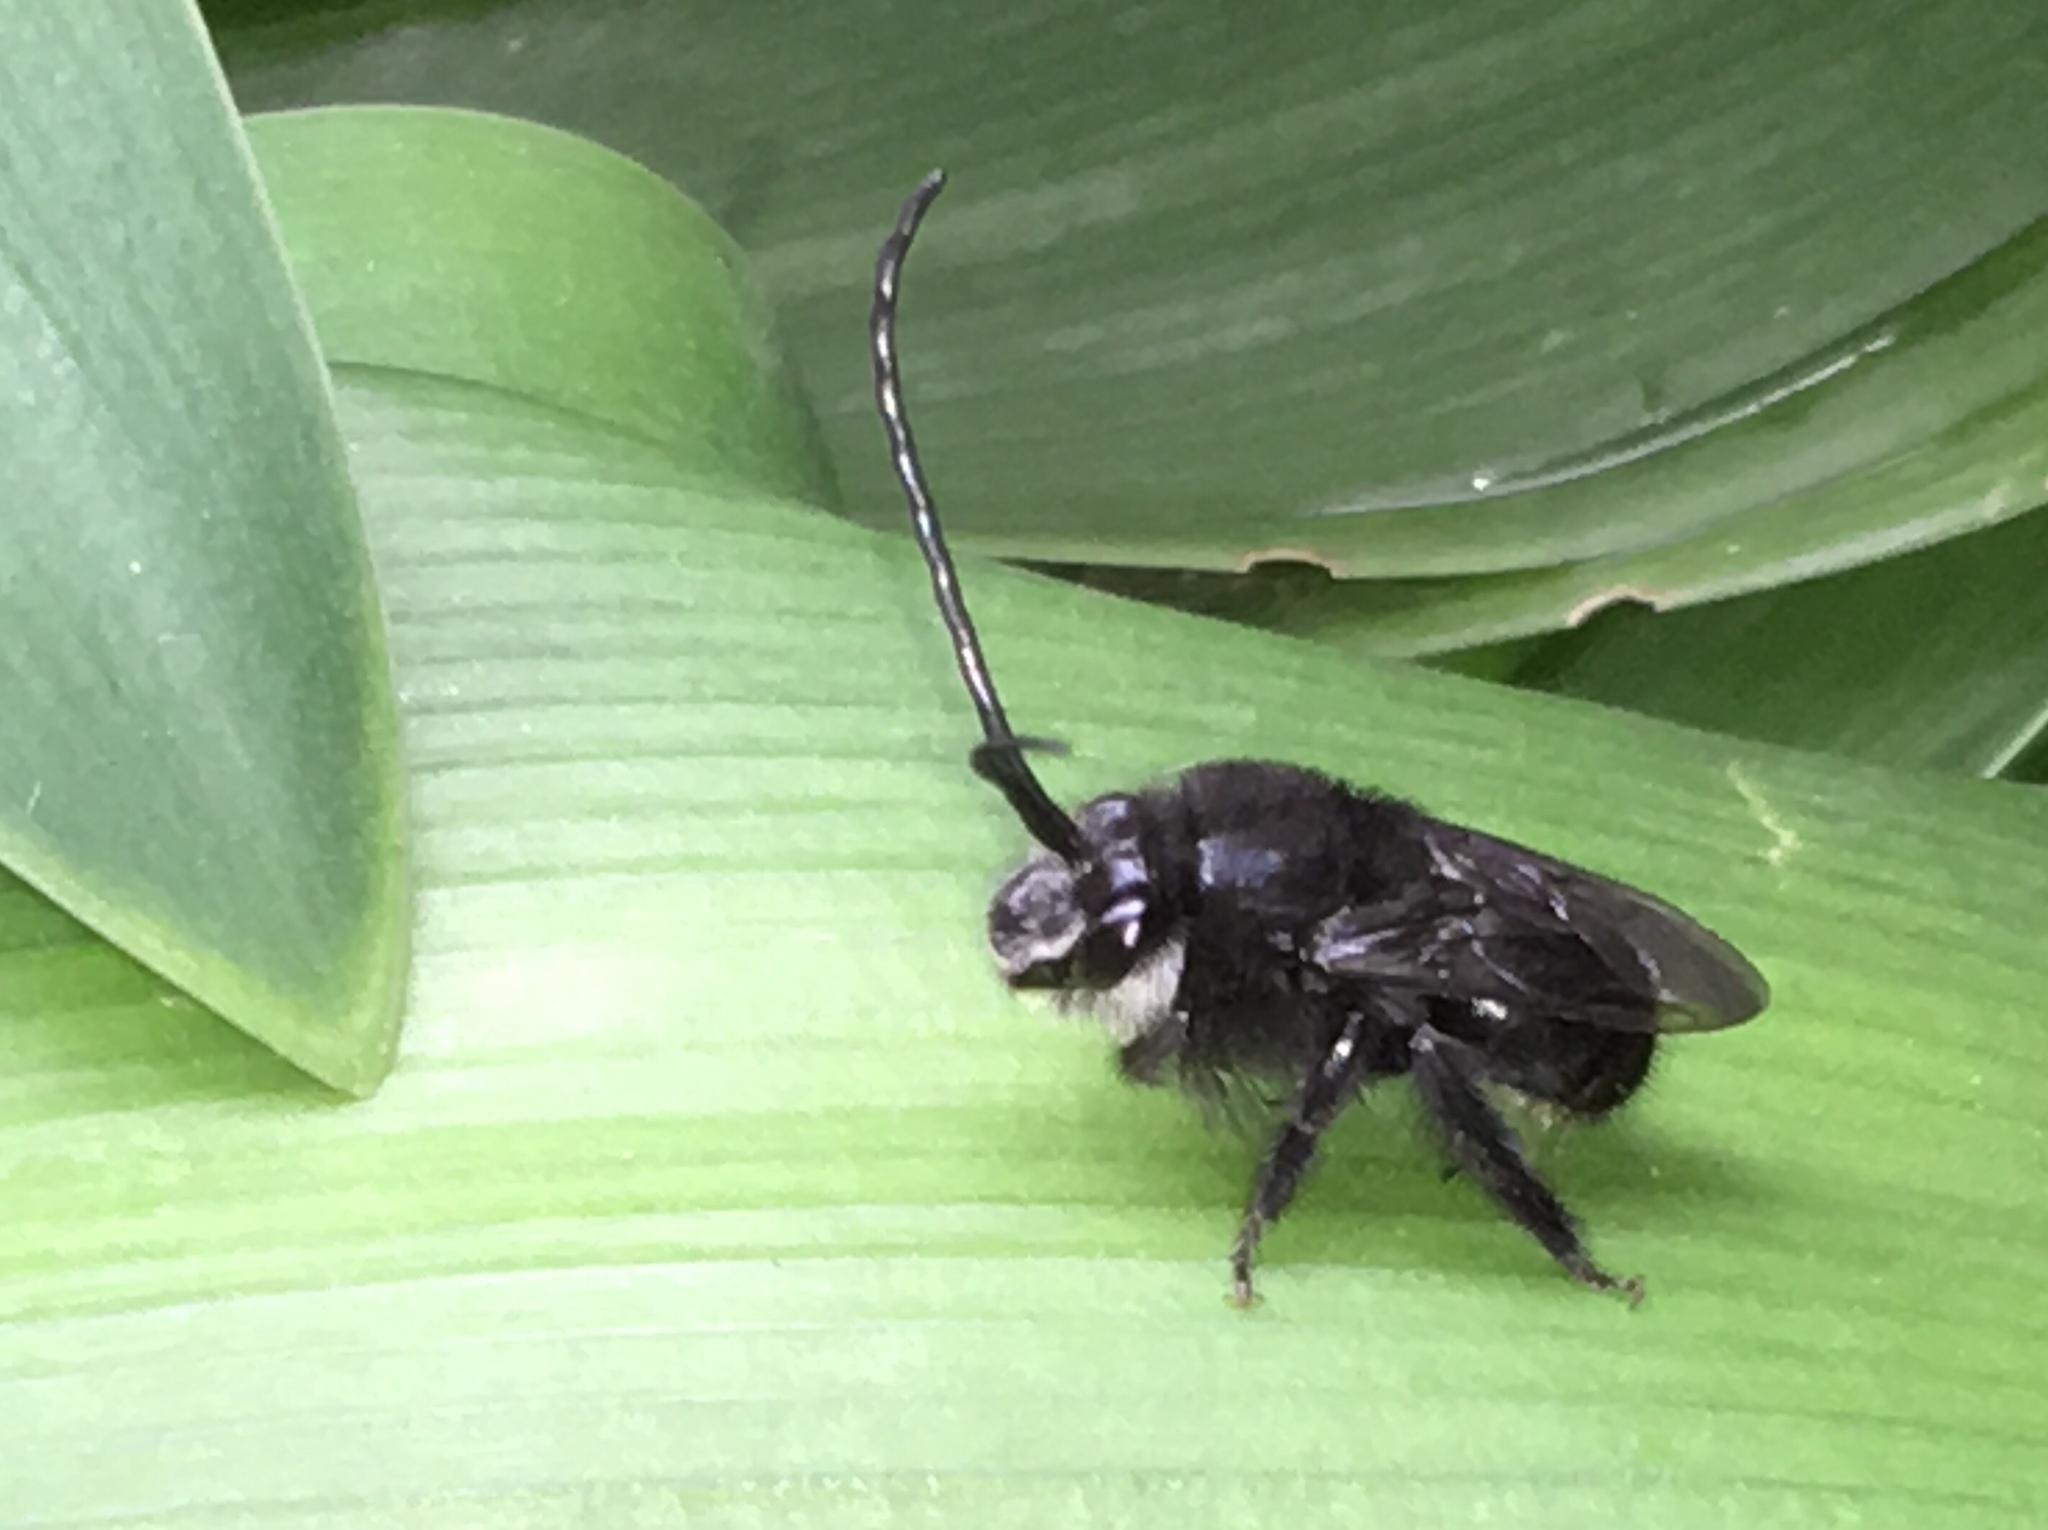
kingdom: Animalia
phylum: Arthropoda
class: Insecta
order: Hymenoptera
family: Apidae
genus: Thygater
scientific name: Thygater aethiops
